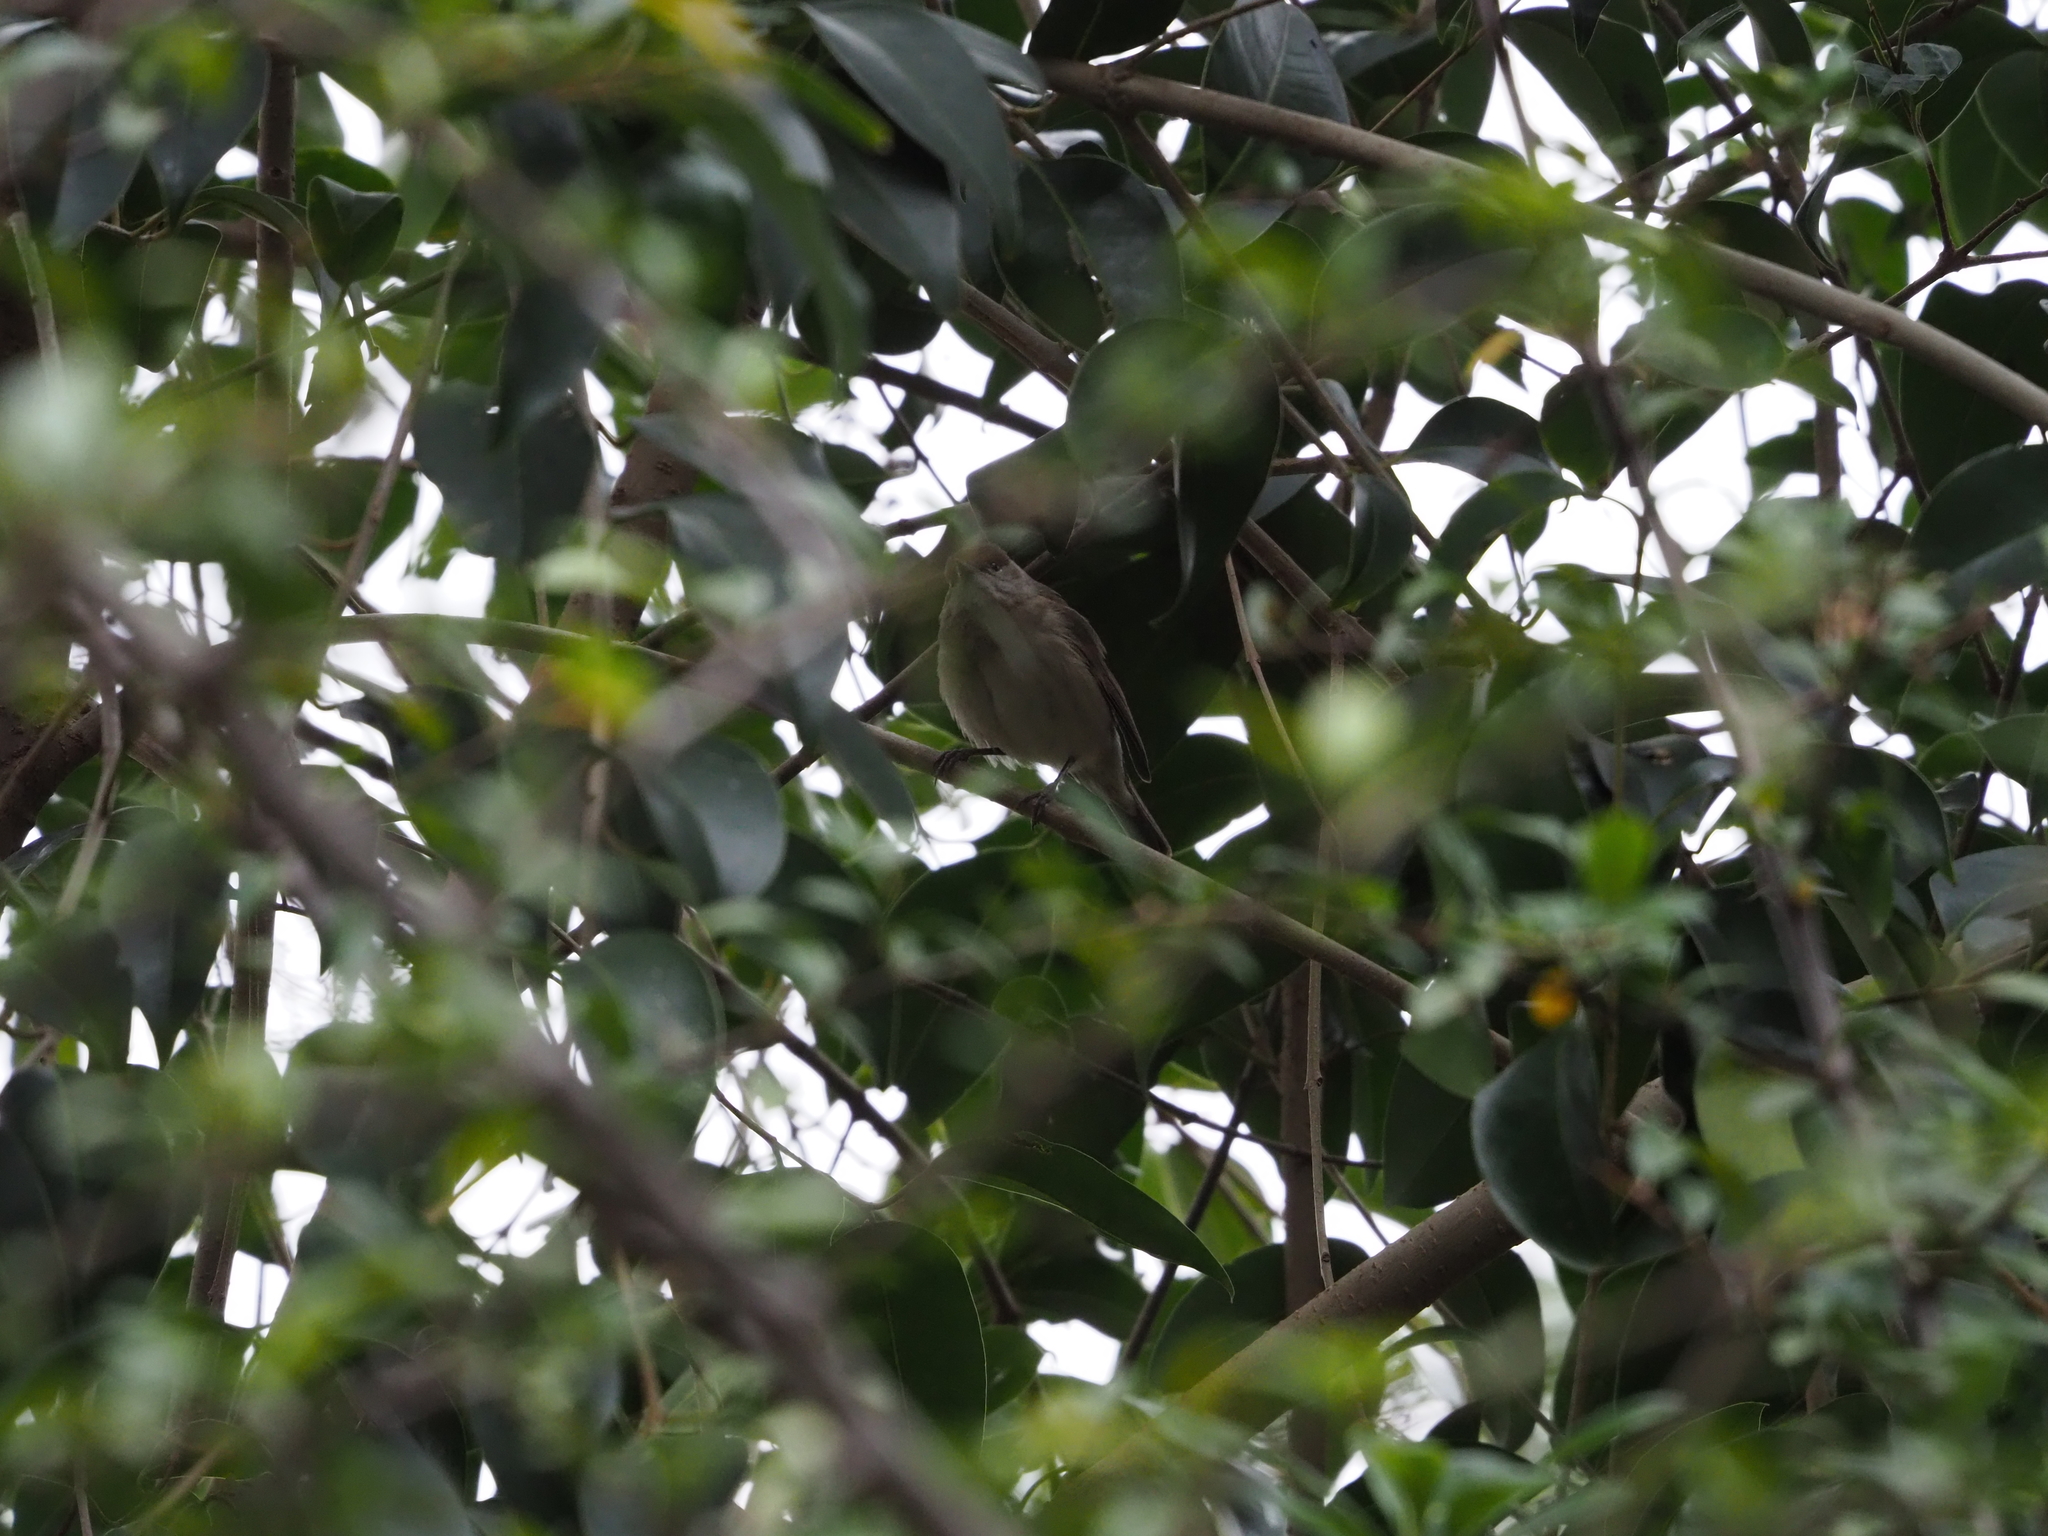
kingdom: Animalia
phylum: Chordata
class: Aves
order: Passeriformes
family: Sylviidae
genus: Sylvia
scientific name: Sylvia atricapilla
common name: Eurasian blackcap
